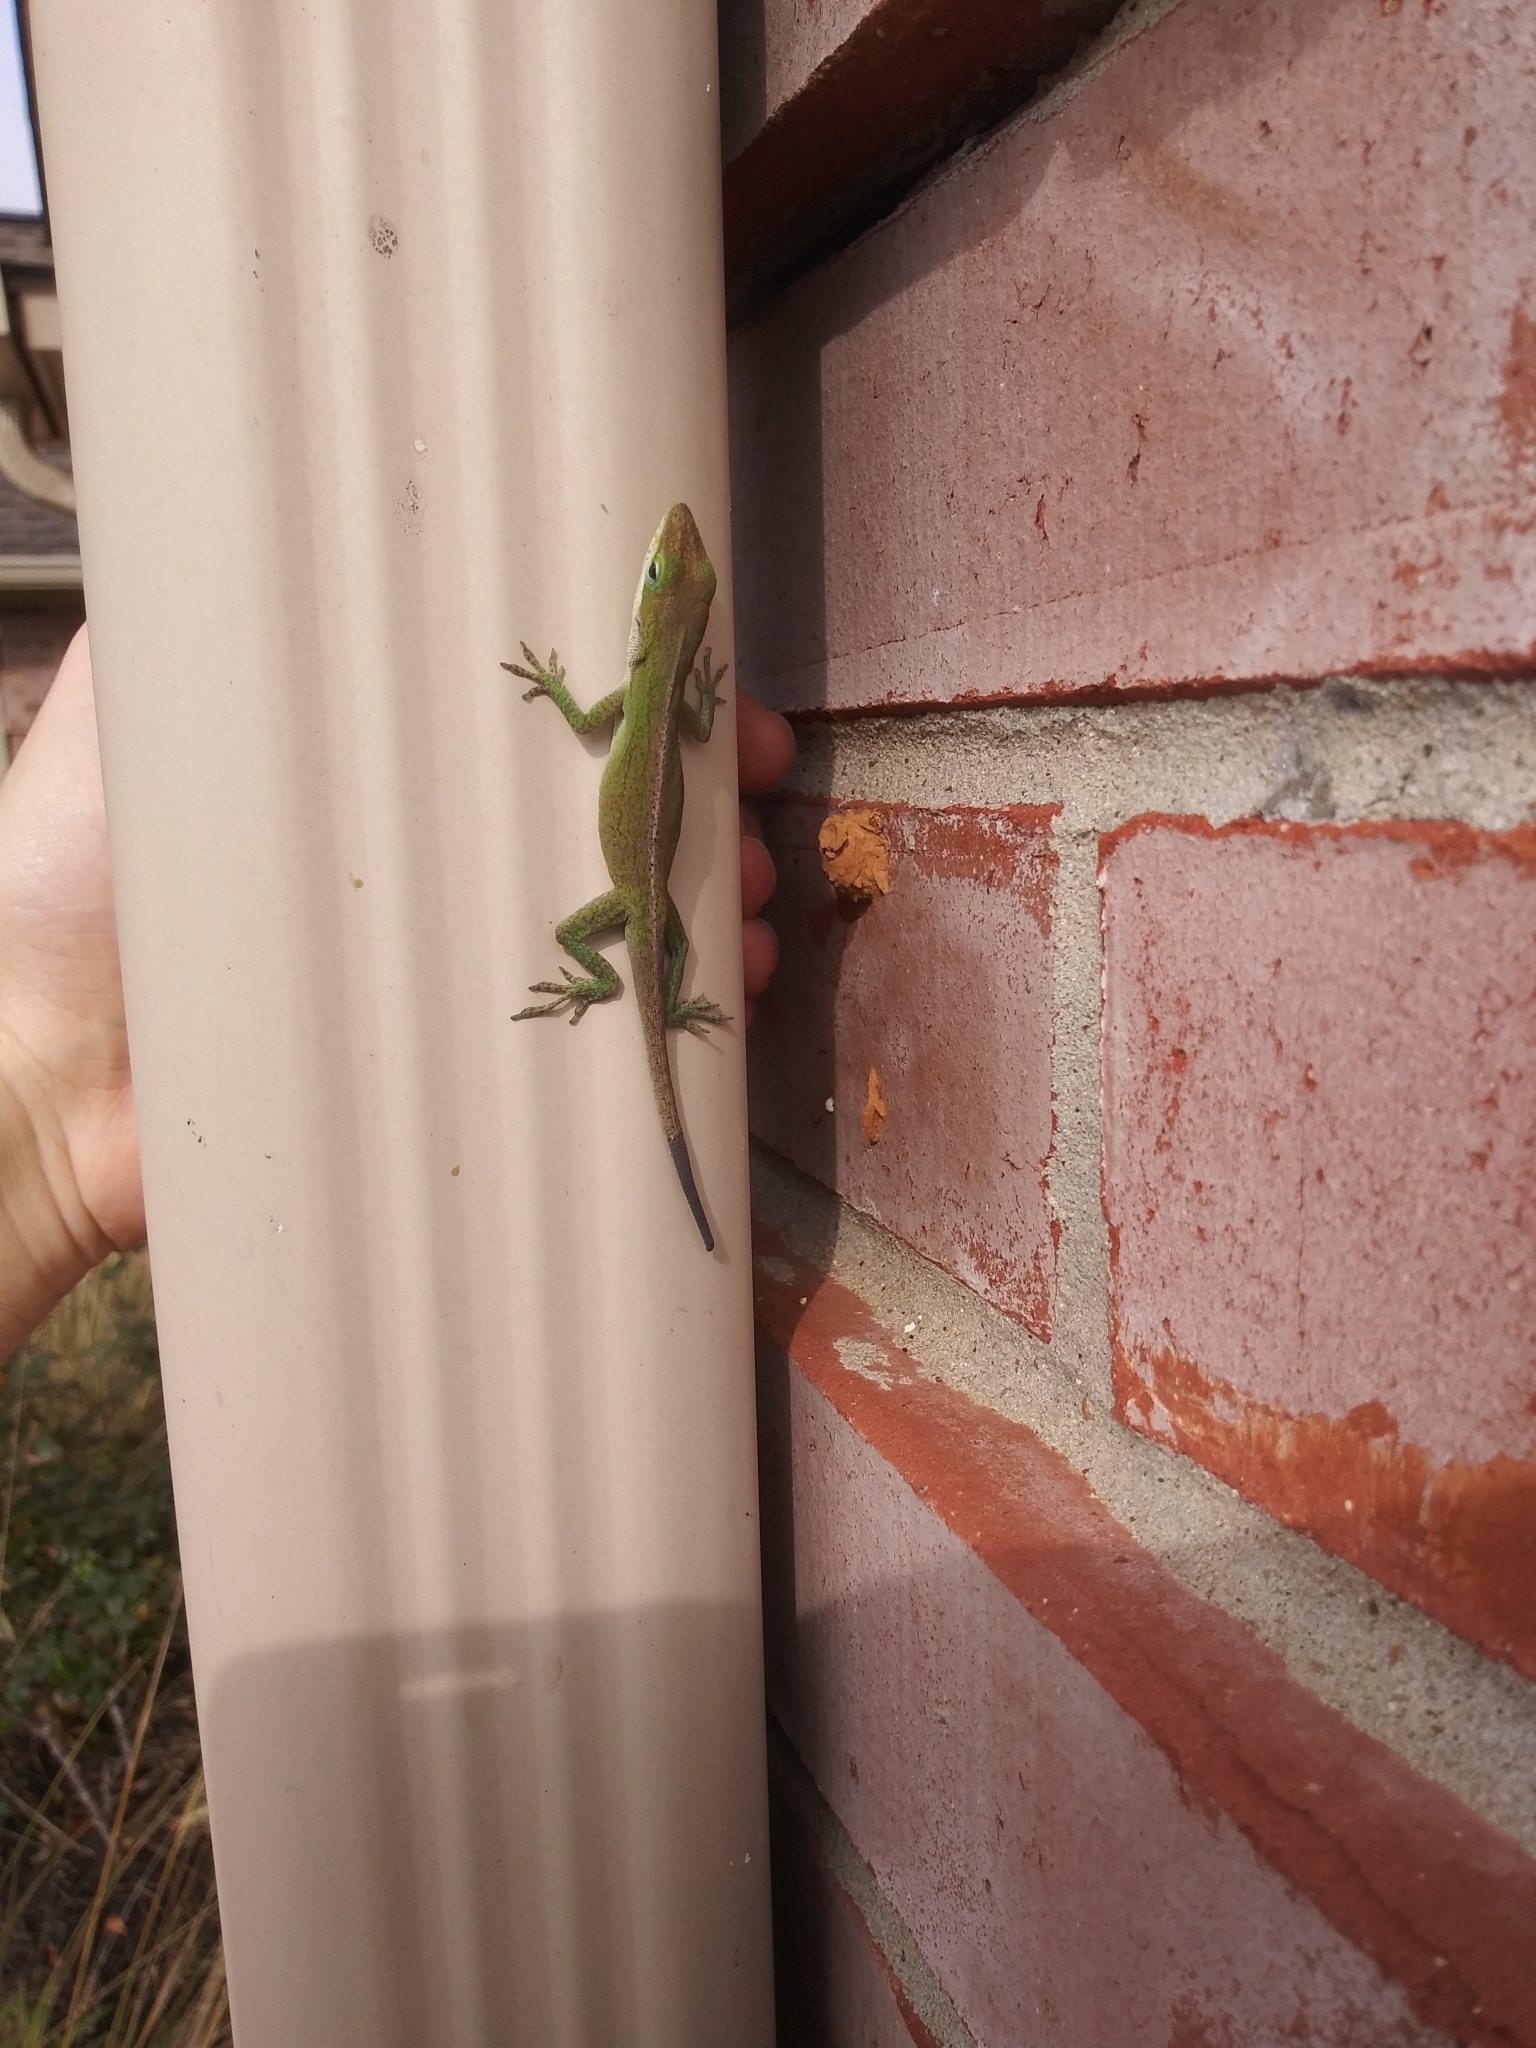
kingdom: Animalia
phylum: Chordata
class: Squamata
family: Dactyloidae
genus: Anolis
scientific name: Anolis carolinensis
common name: Green anole
